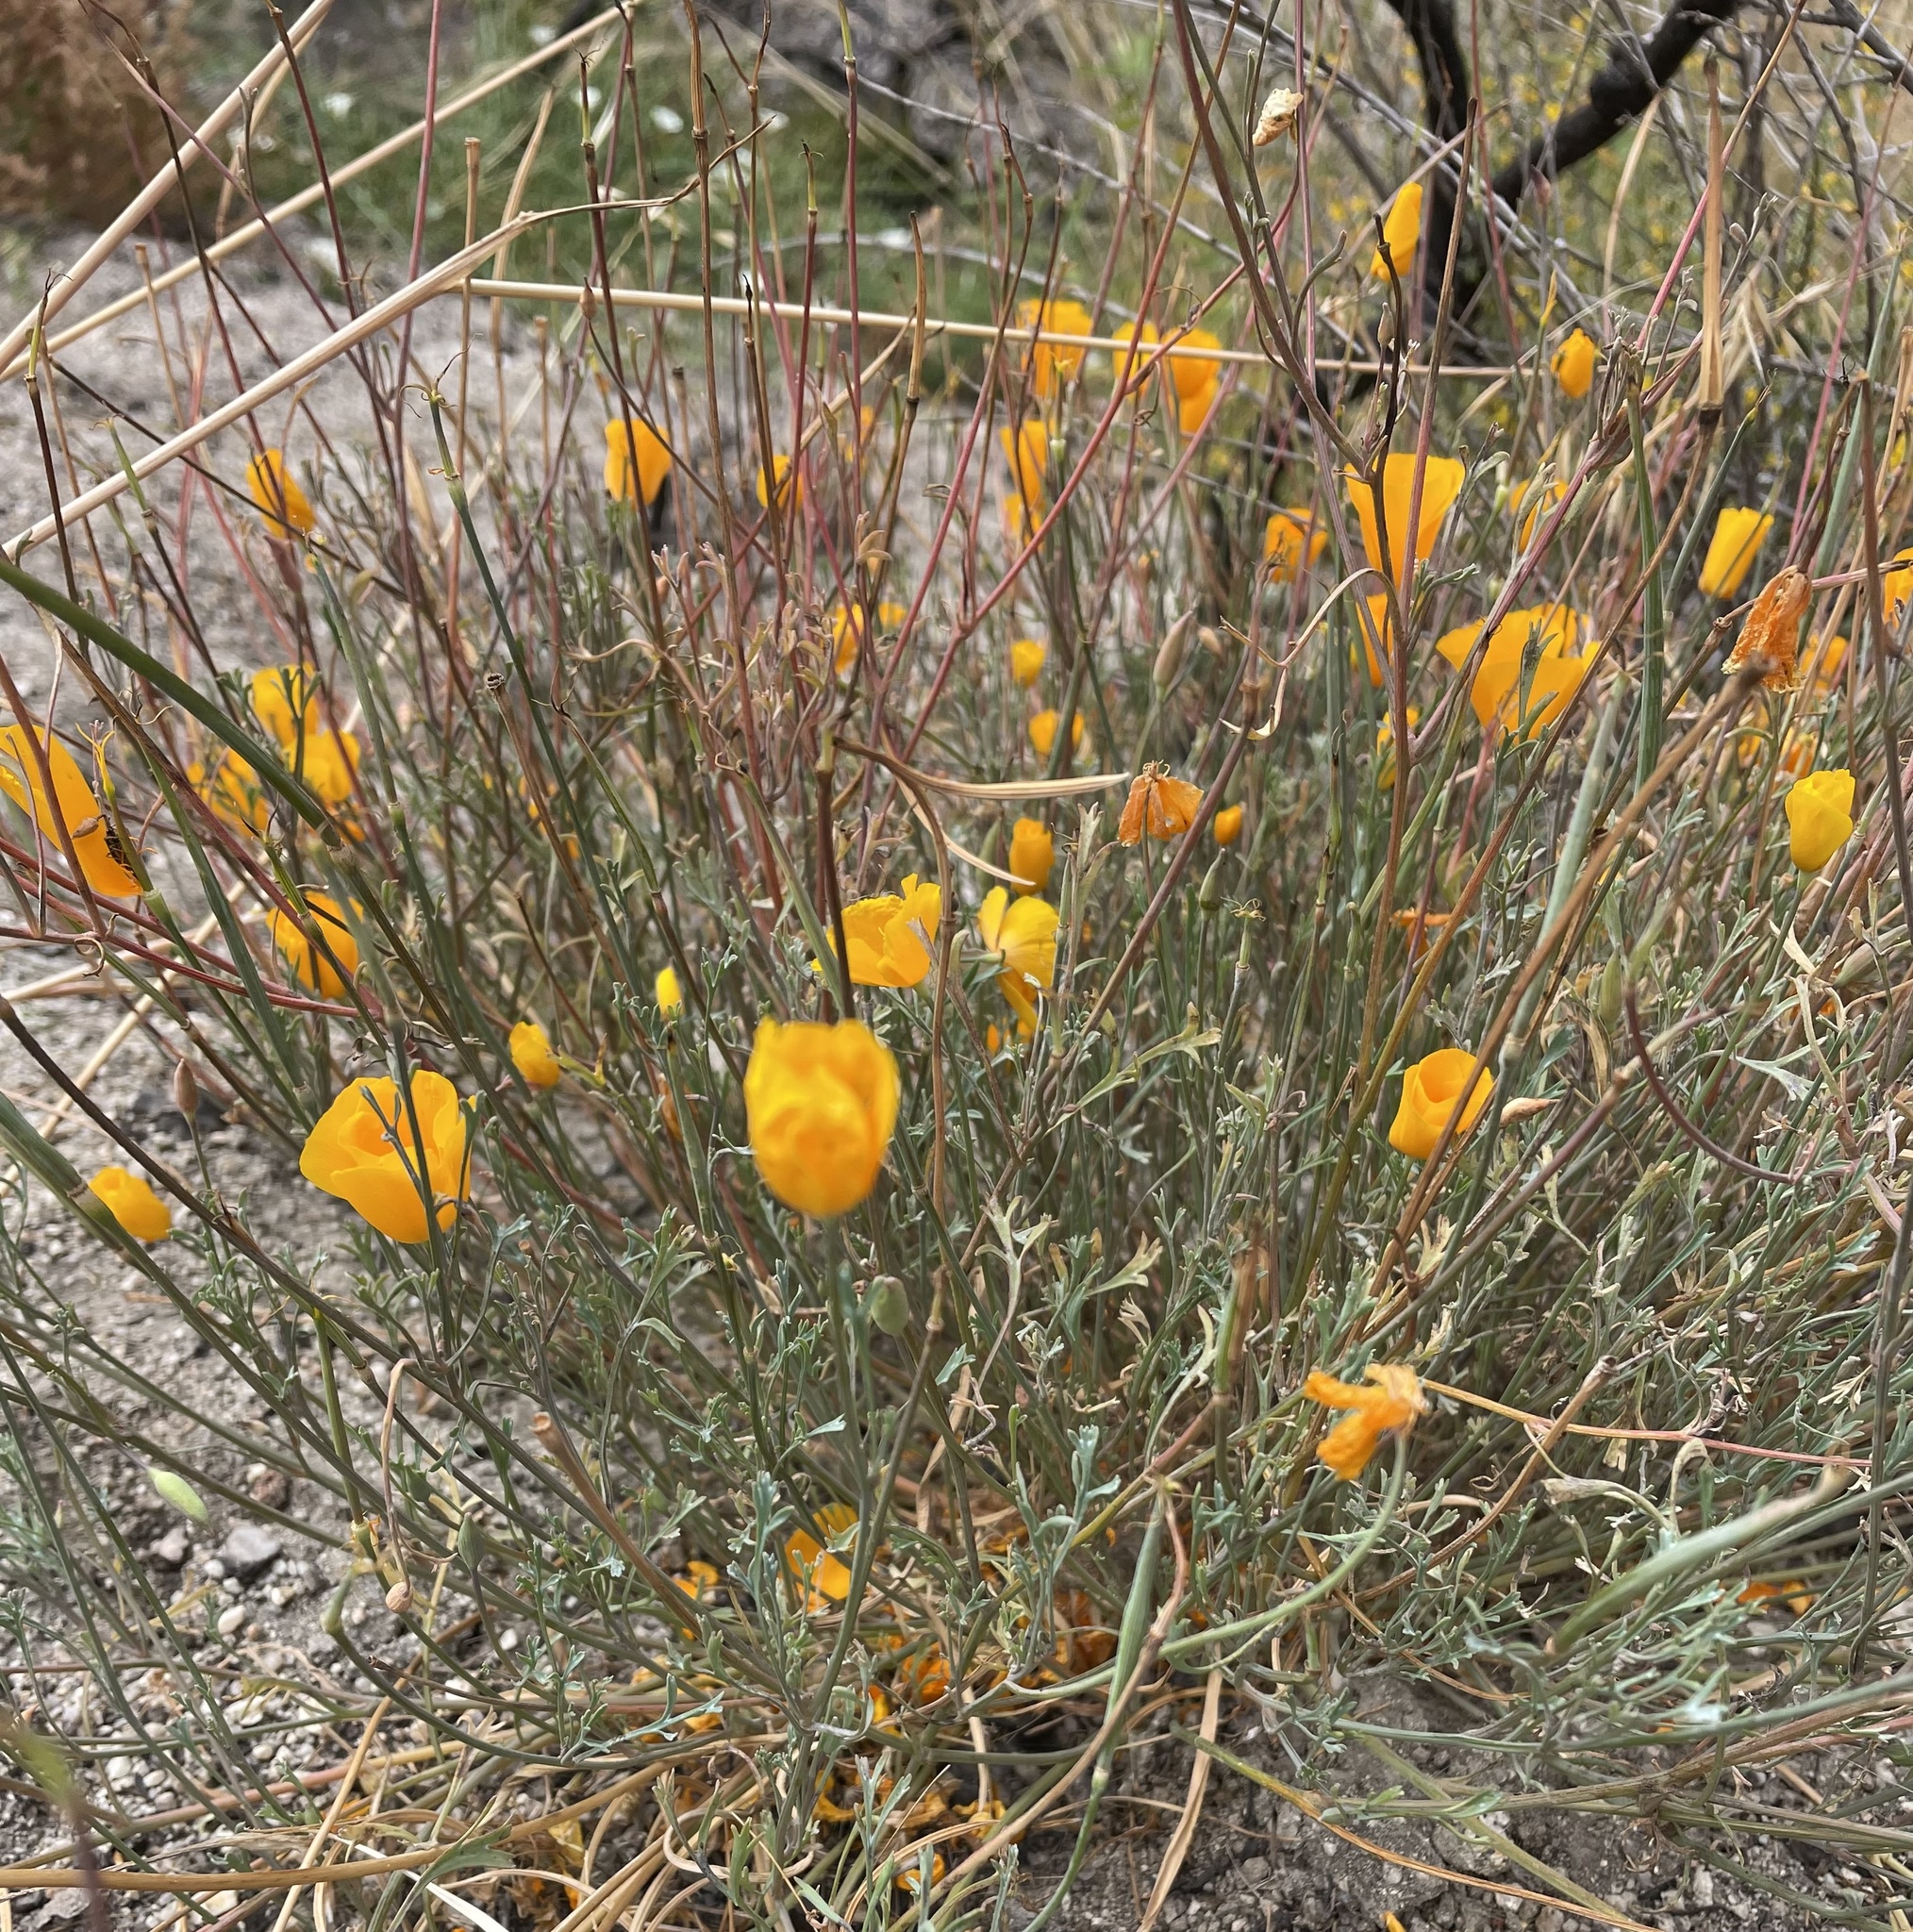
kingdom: Plantae
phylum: Tracheophyta
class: Magnoliopsida
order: Ranunculales
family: Papaveraceae
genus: Eschscholzia
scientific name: Eschscholzia caespitosa
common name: Tufted california-poppy
